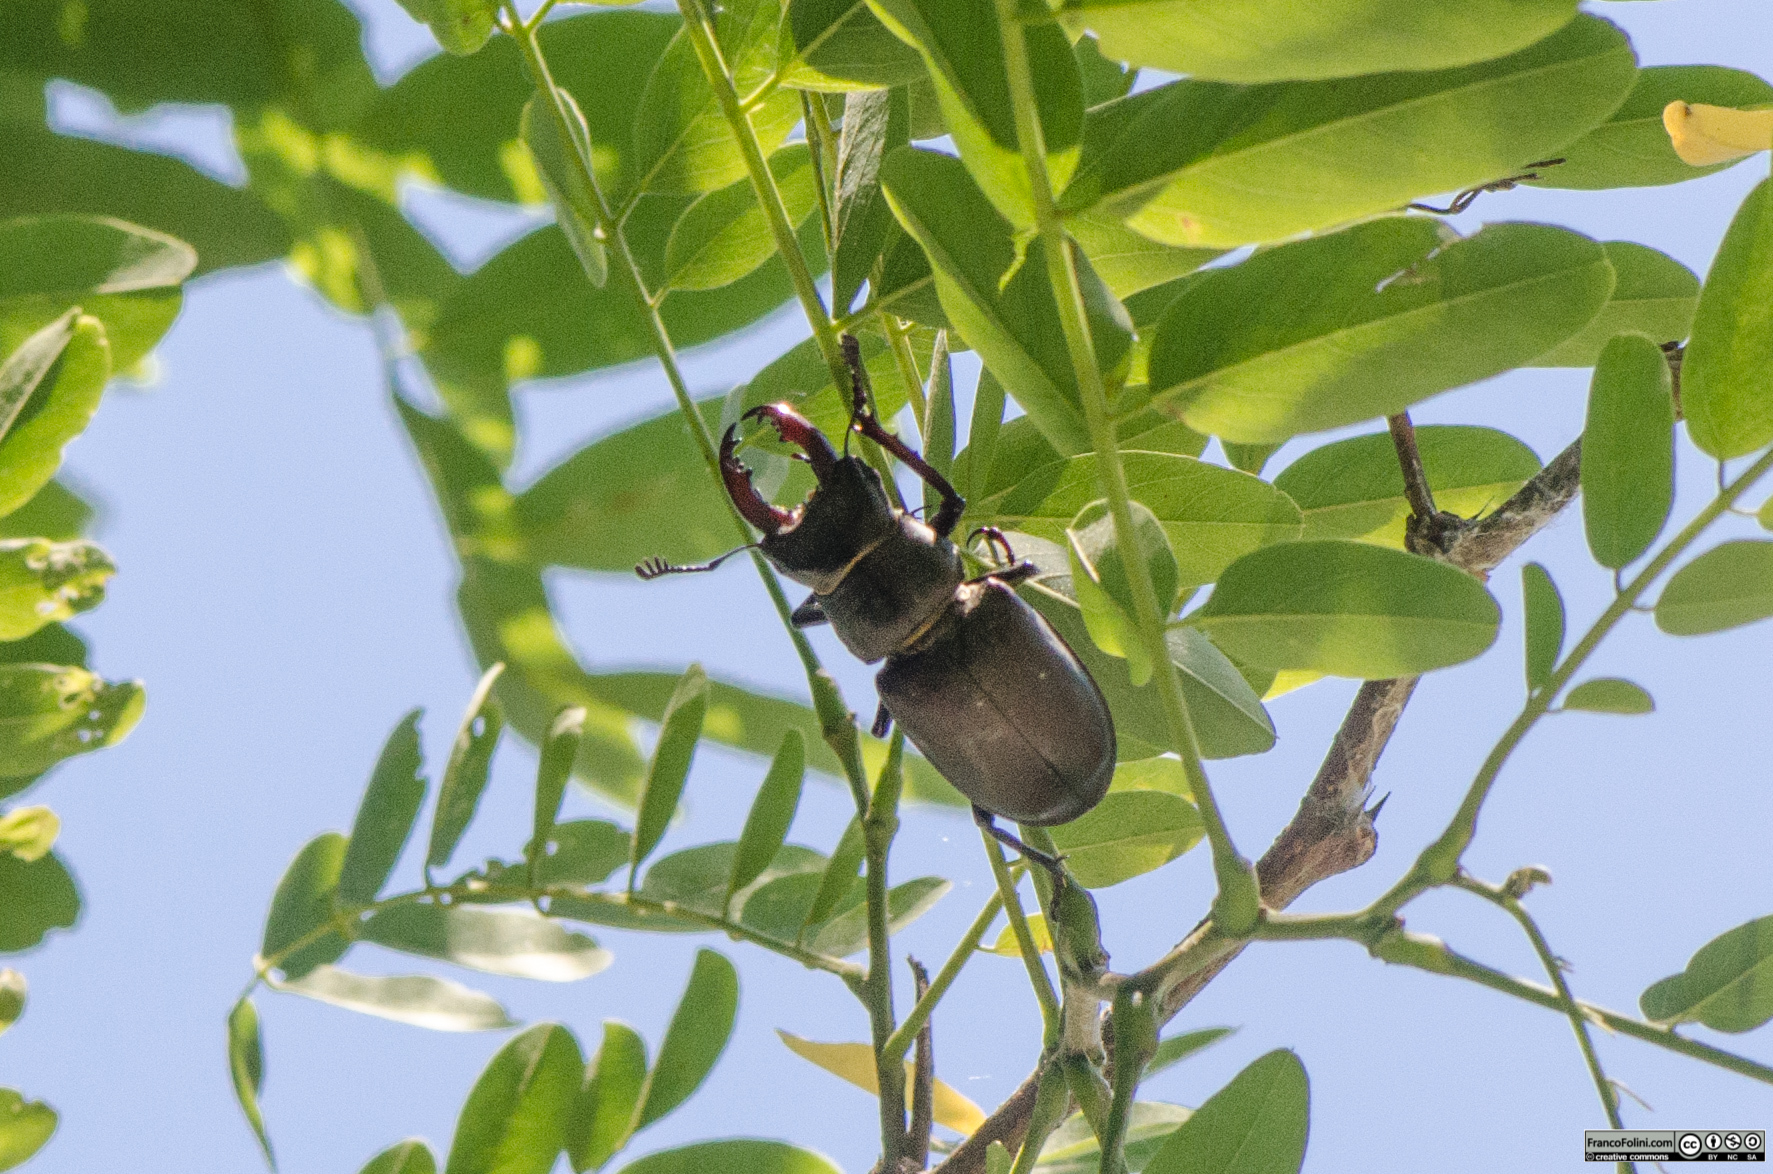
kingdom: Animalia
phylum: Arthropoda
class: Insecta
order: Coleoptera
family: Lucanidae
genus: Lucanus
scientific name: Lucanus cervus
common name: Stag beetle
